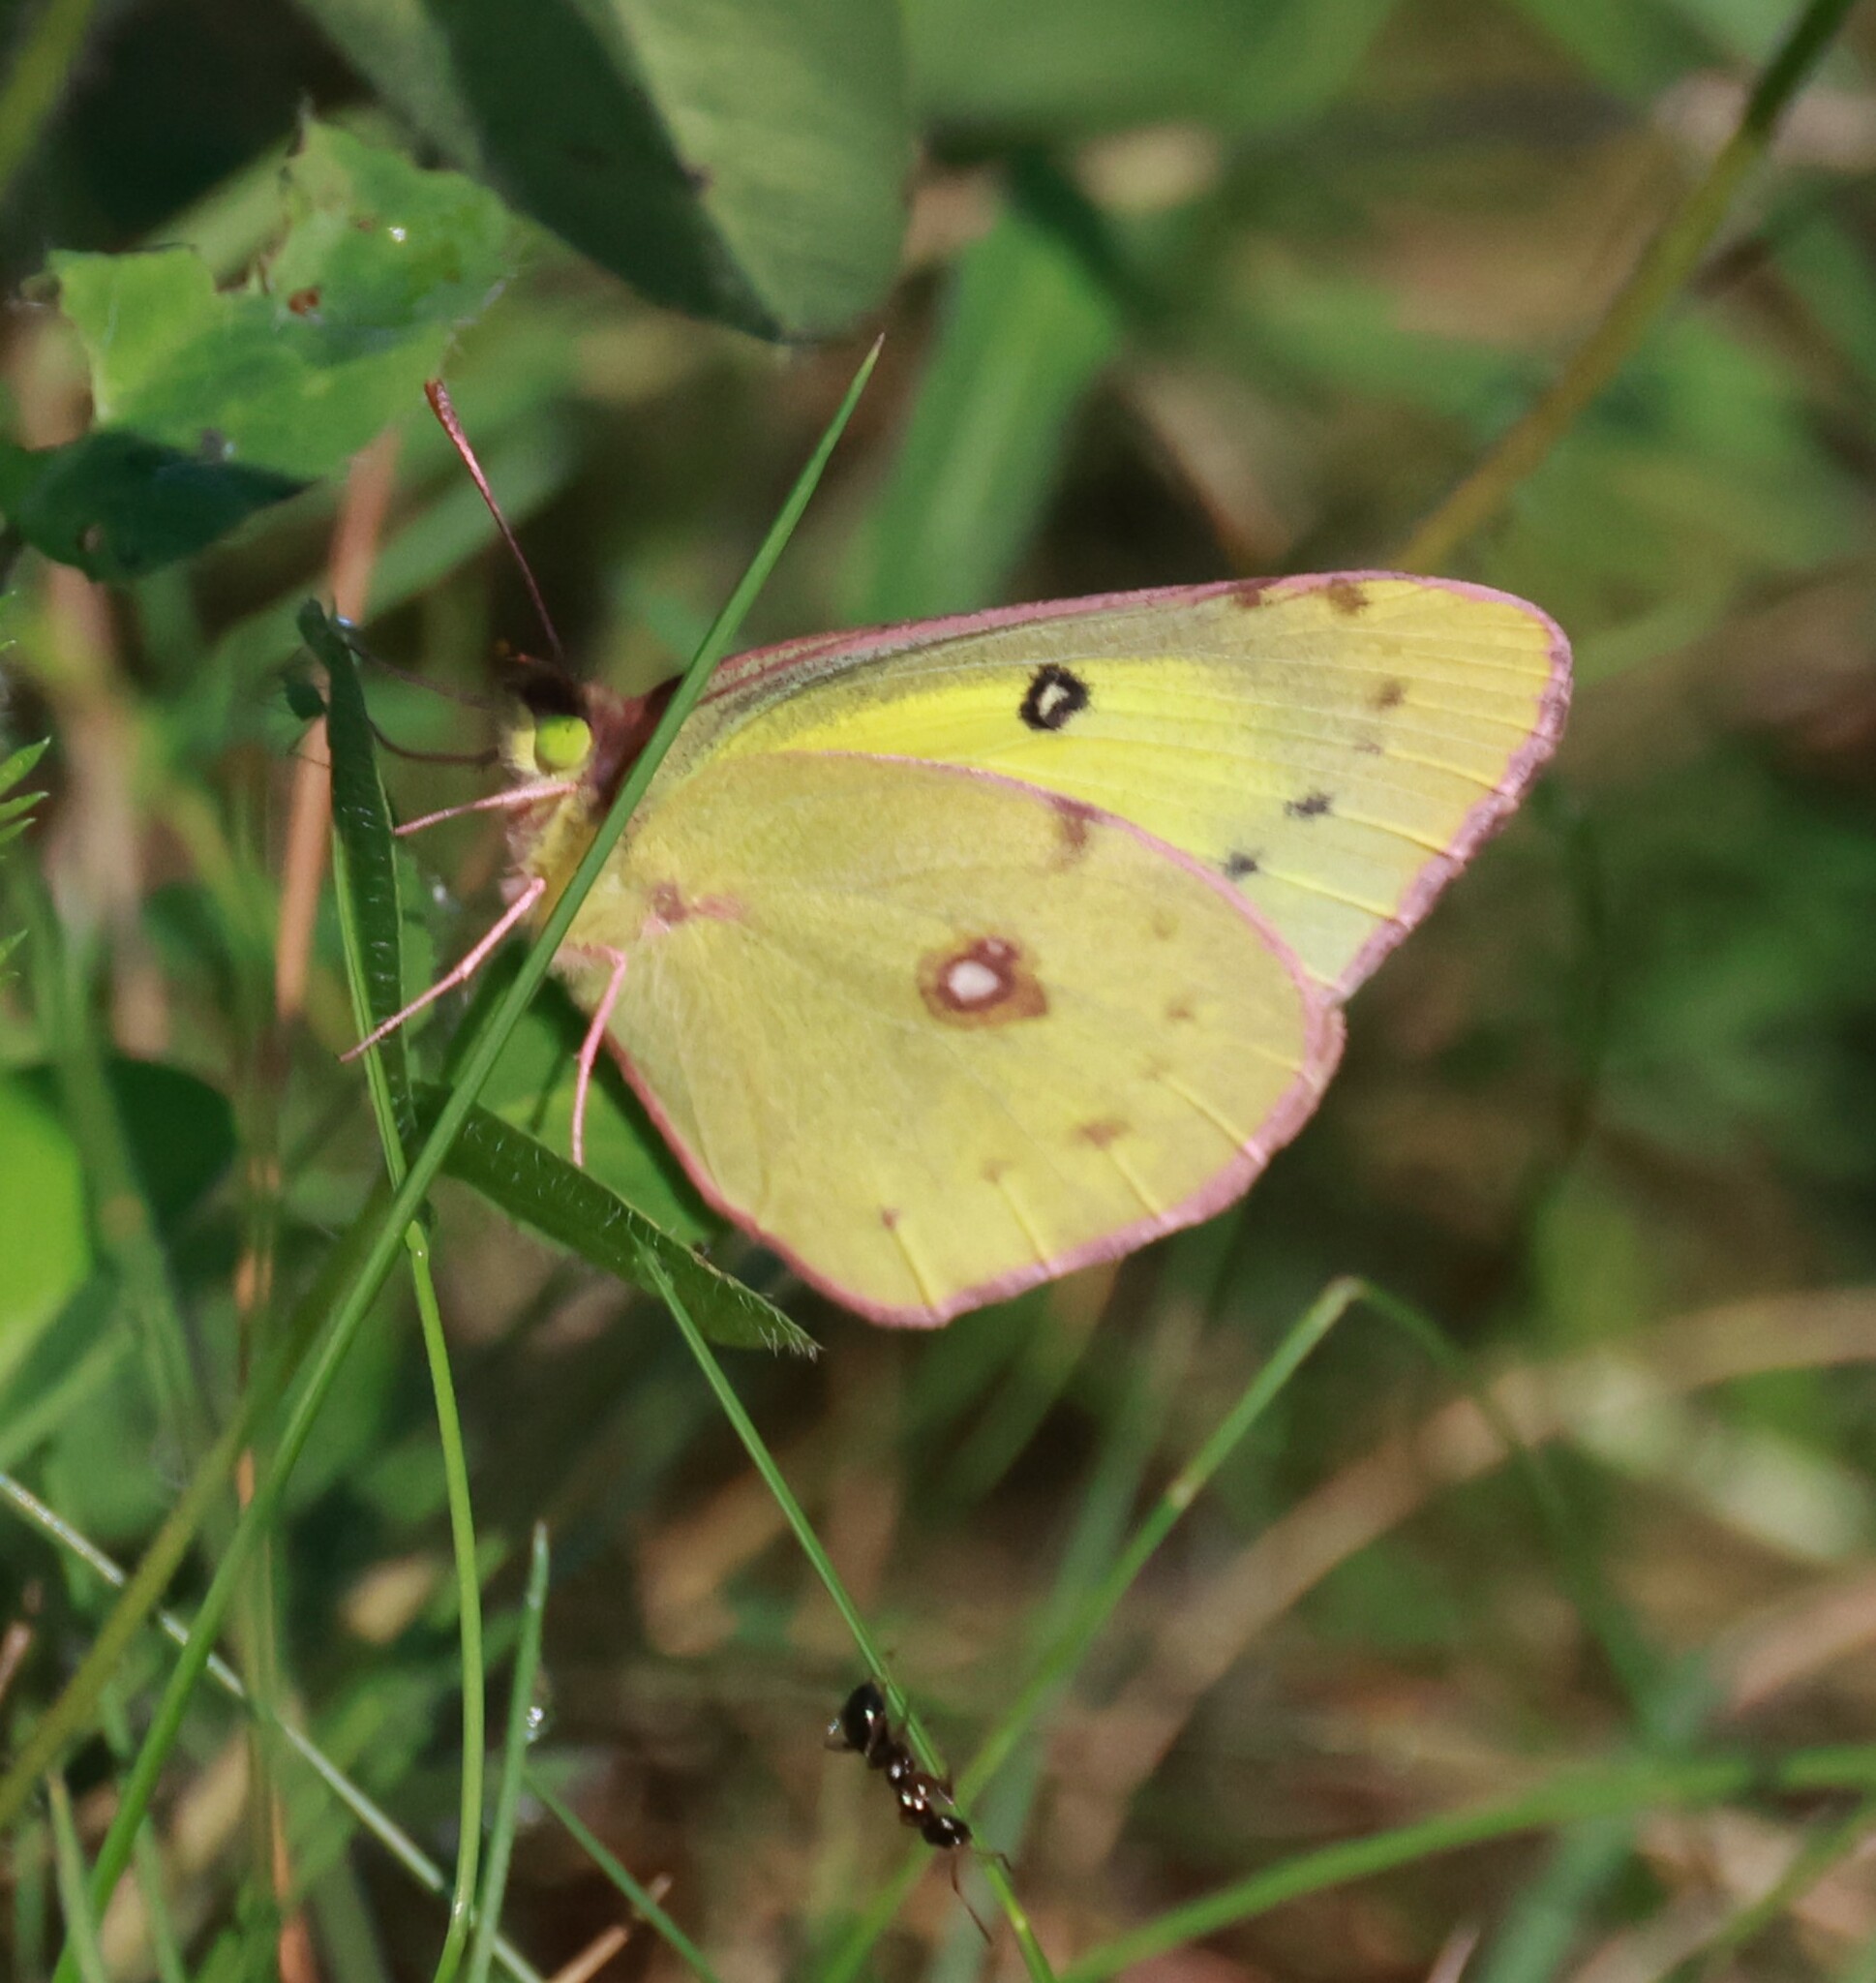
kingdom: Animalia
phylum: Arthropoda
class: Insecta
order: Lepidoptera
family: Pieridae
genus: Colias
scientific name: Colias philodice
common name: Clouded sulphur
